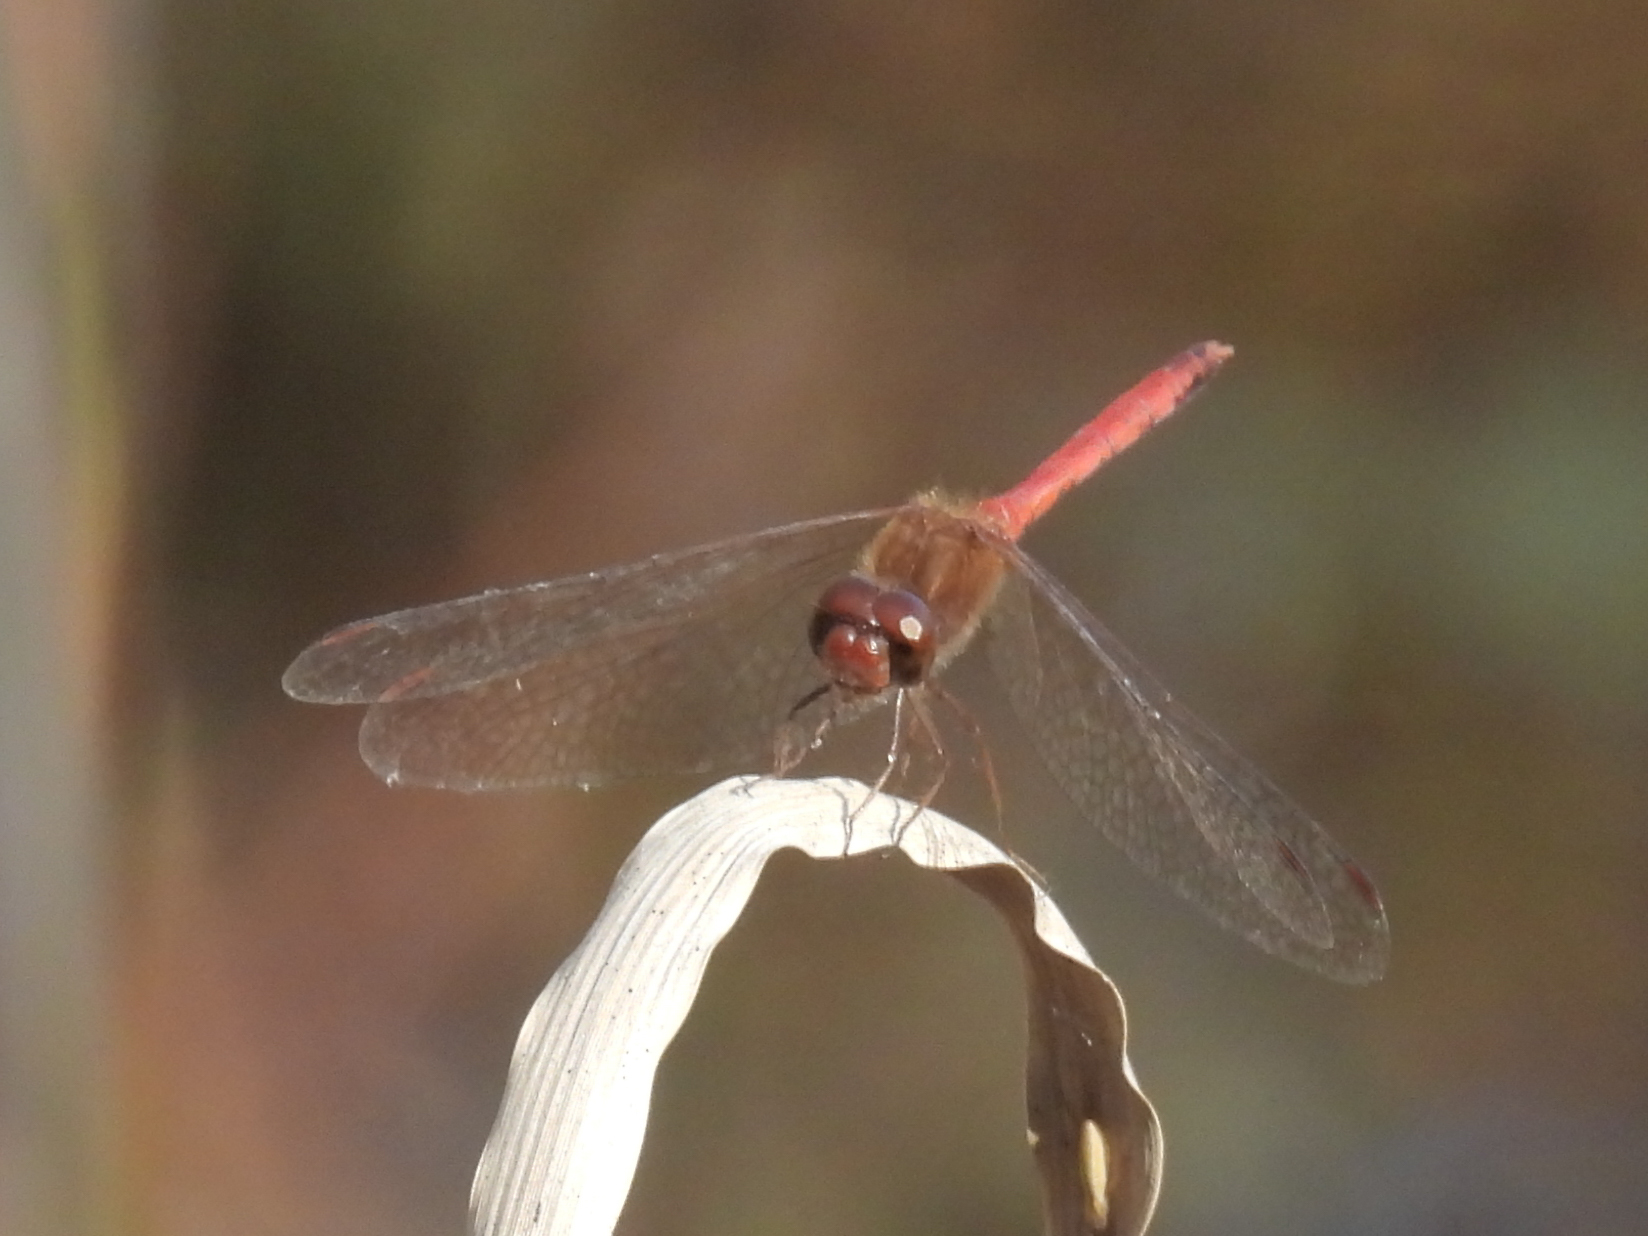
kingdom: Animalia
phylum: Arthropoda
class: Insecta
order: Odonata
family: Libellulidae
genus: Sympetrum
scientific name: Sympetrum vicinum
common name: Autumn meadowhawk
